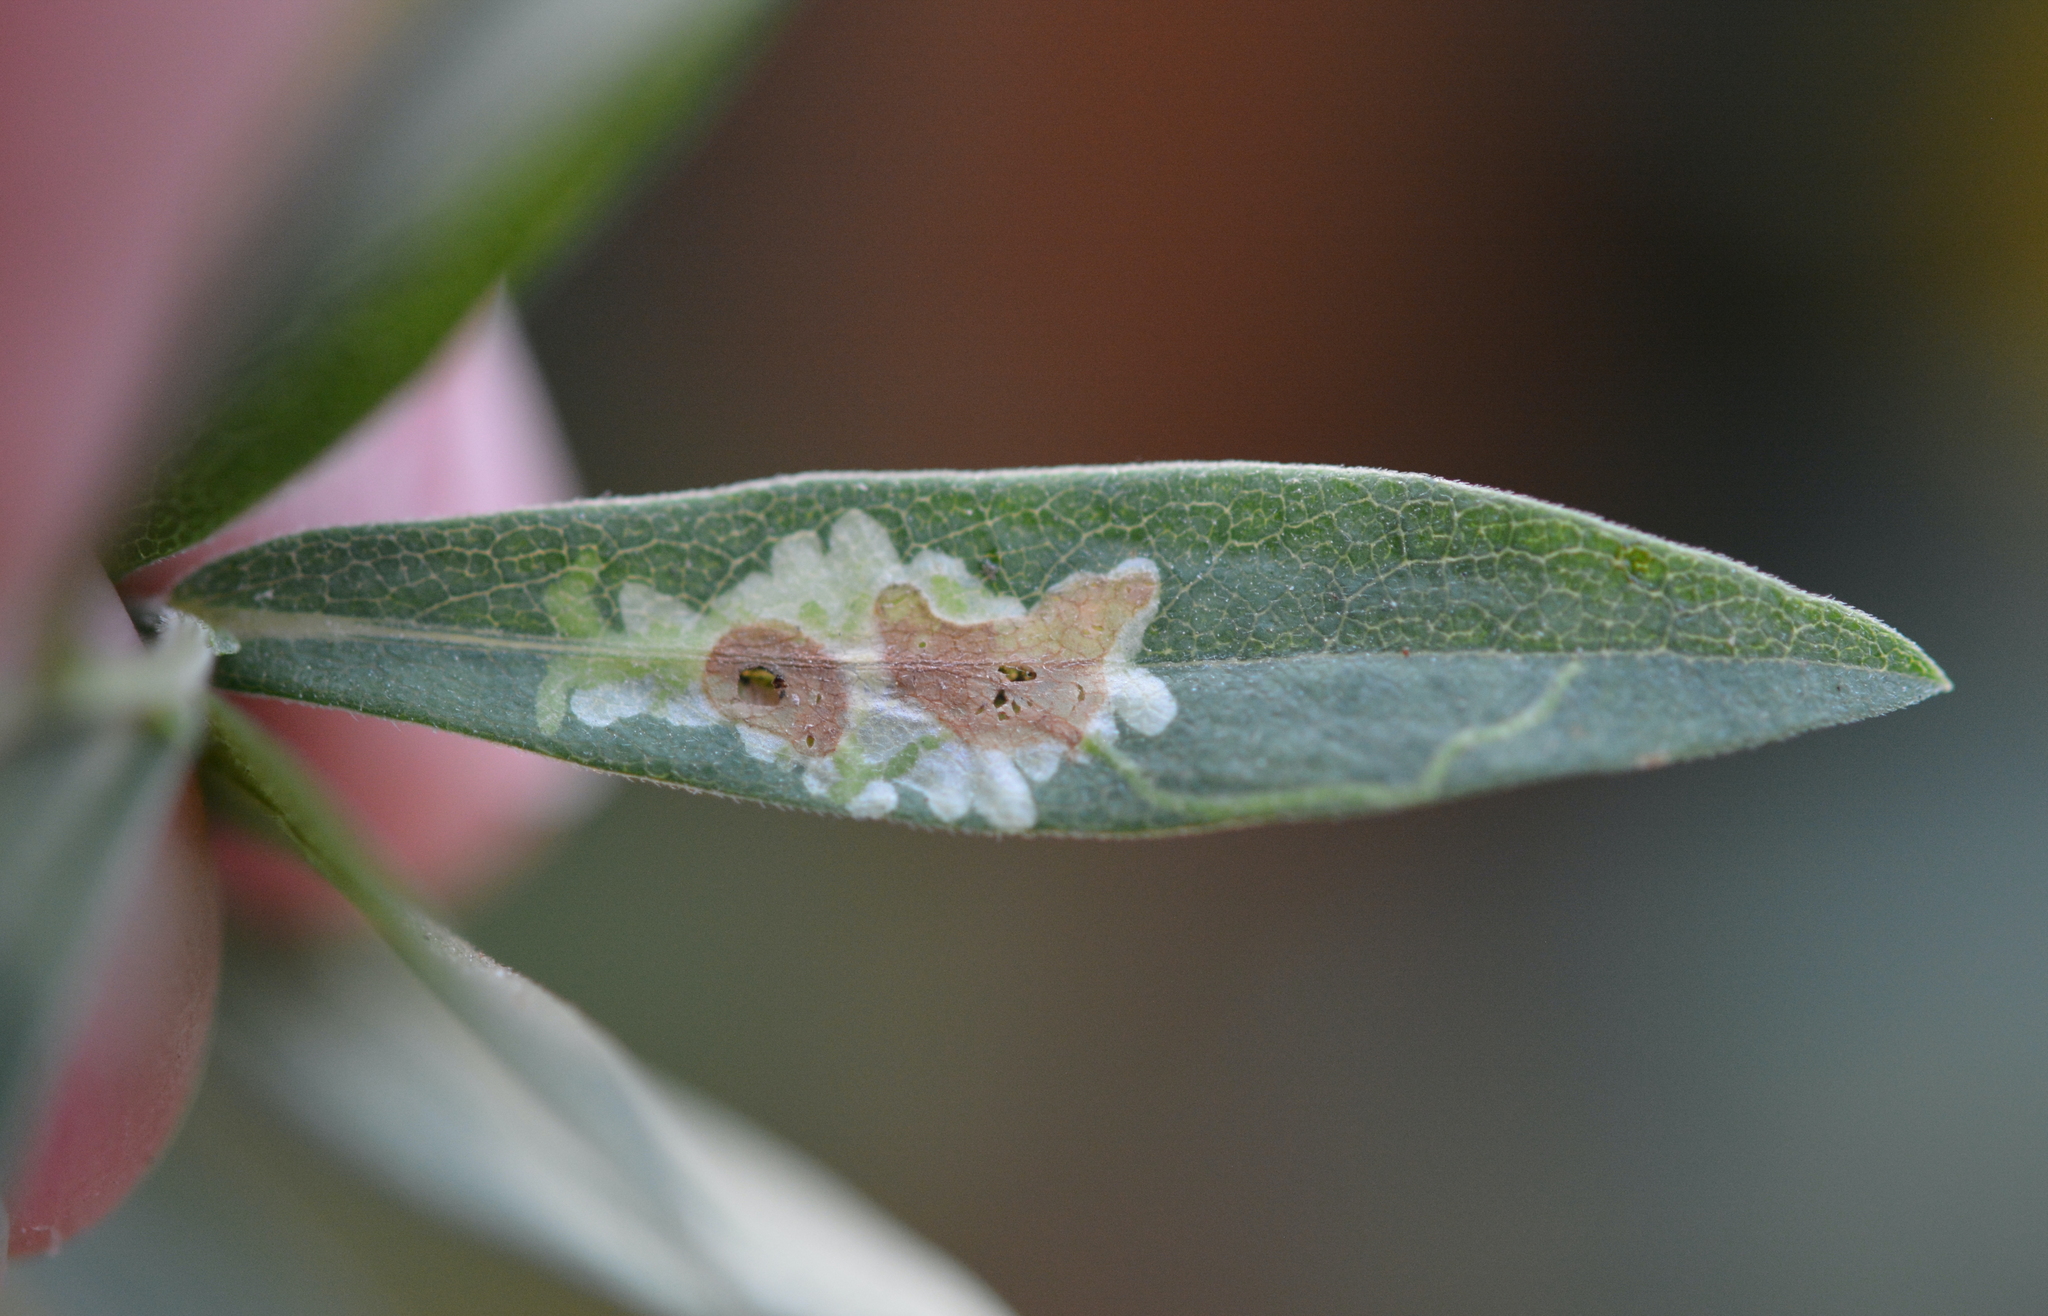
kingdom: Animalia
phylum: Arthropoda
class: Insecta
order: Diptera
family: Agromyzidae
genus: Calycomyza
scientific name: Calycomyza promissa
